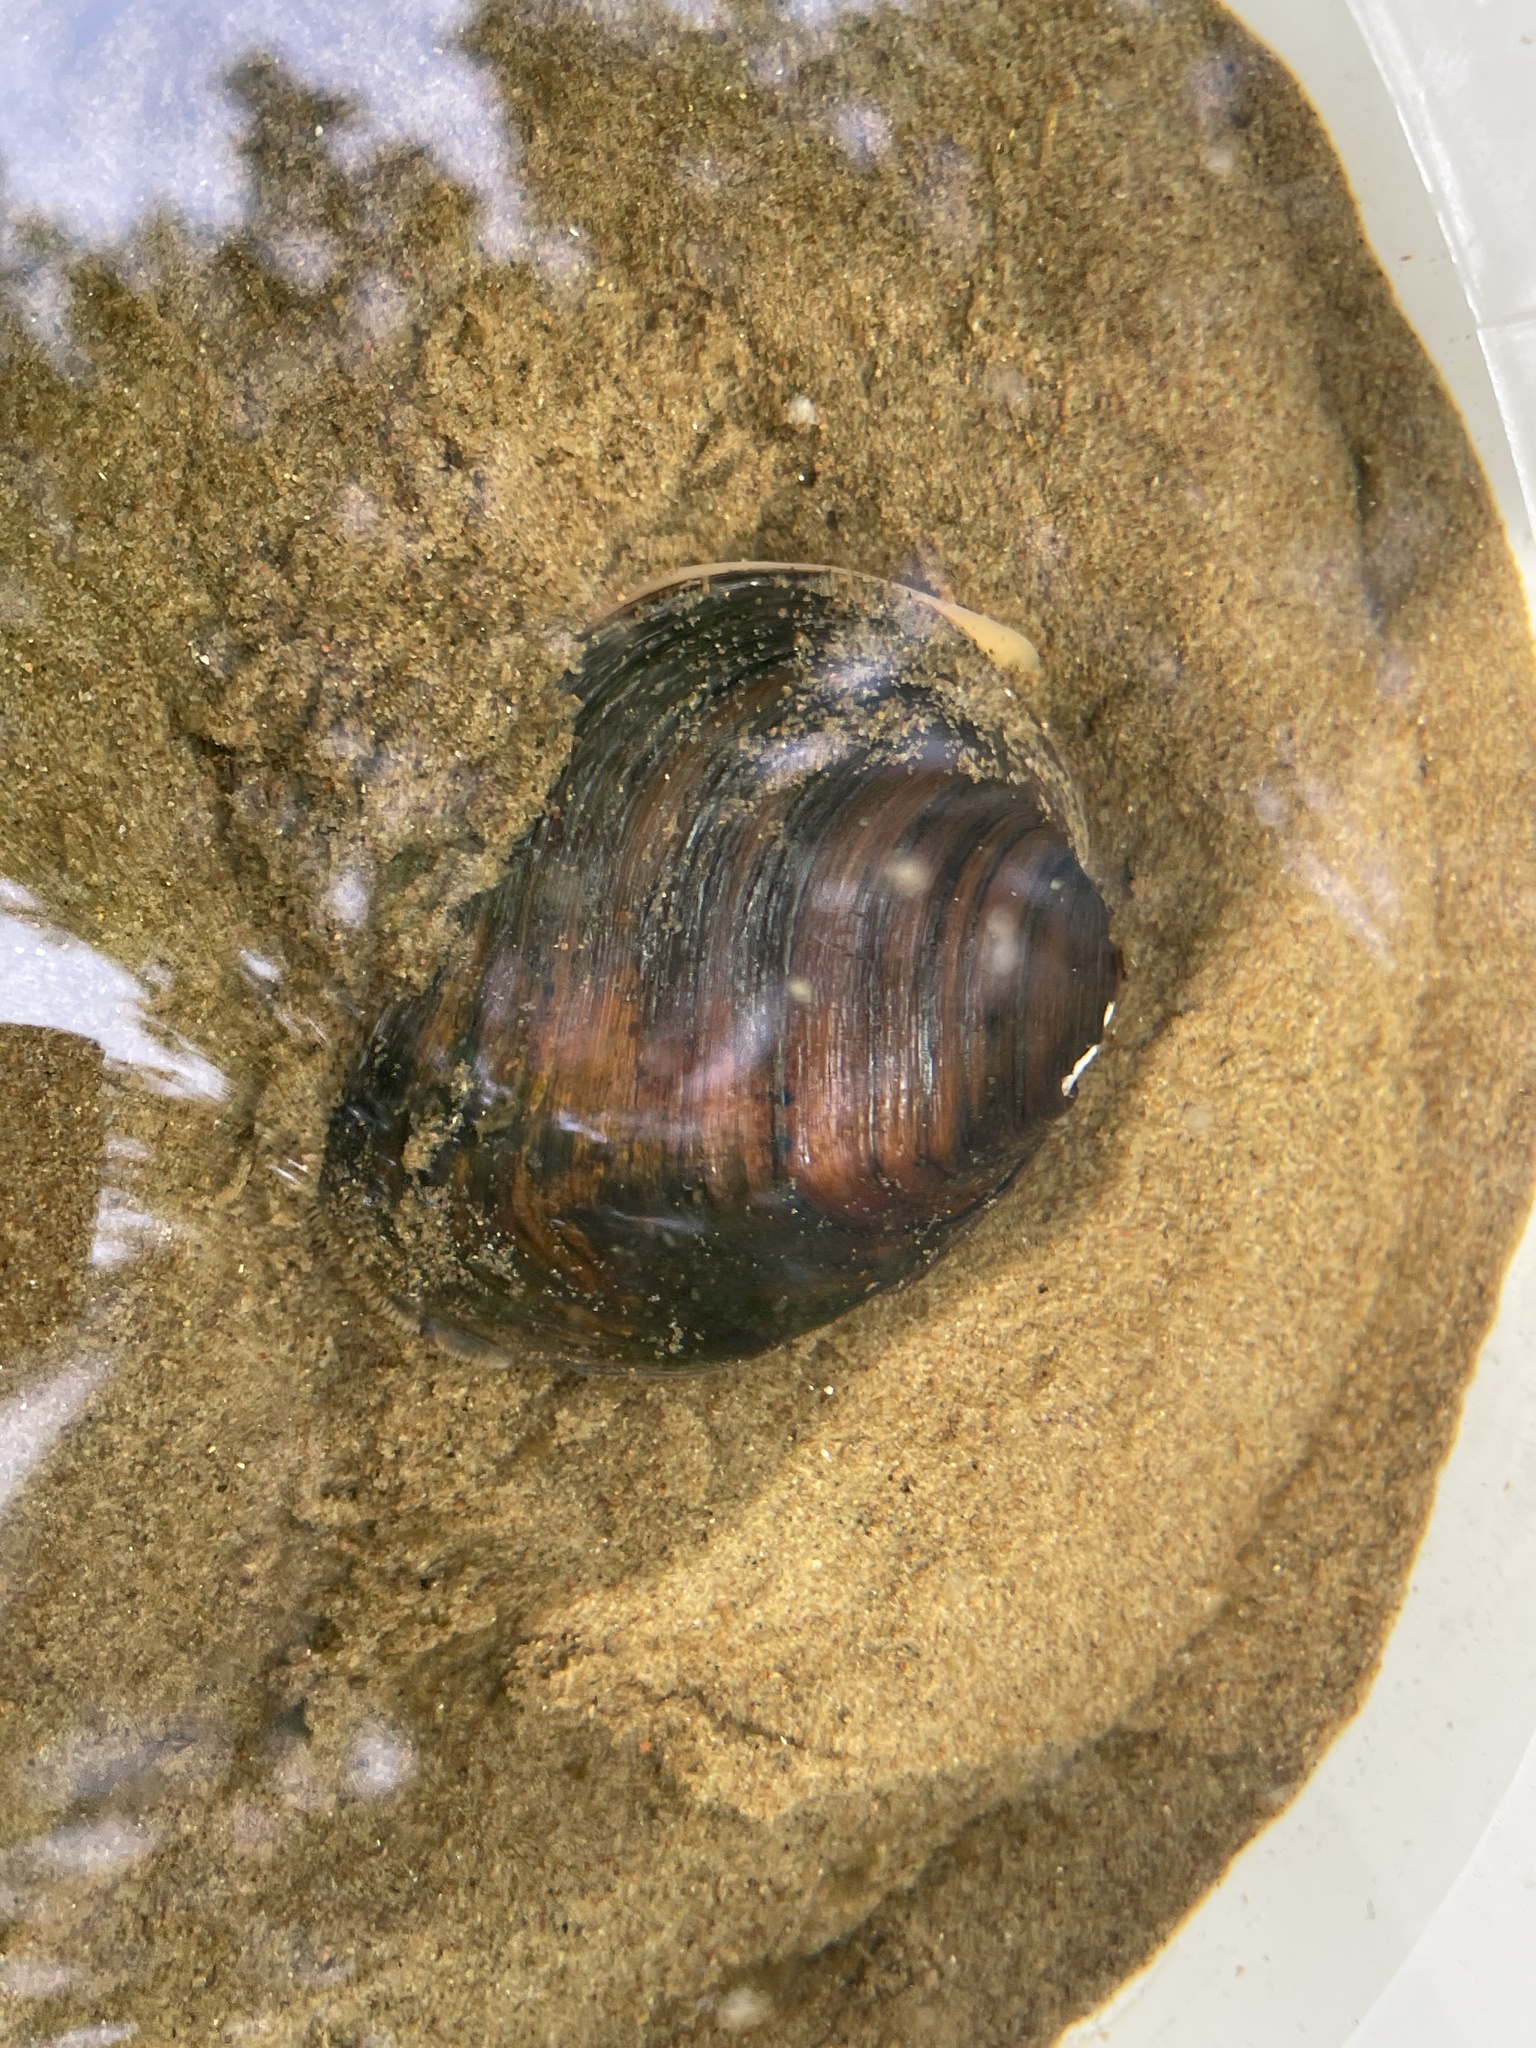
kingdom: Animalia
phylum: Mollusca
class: Bivalvia
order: Unionida
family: Unionidae
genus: Fusconaia
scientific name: Fusconaia flava
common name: Wabash pigtoe
